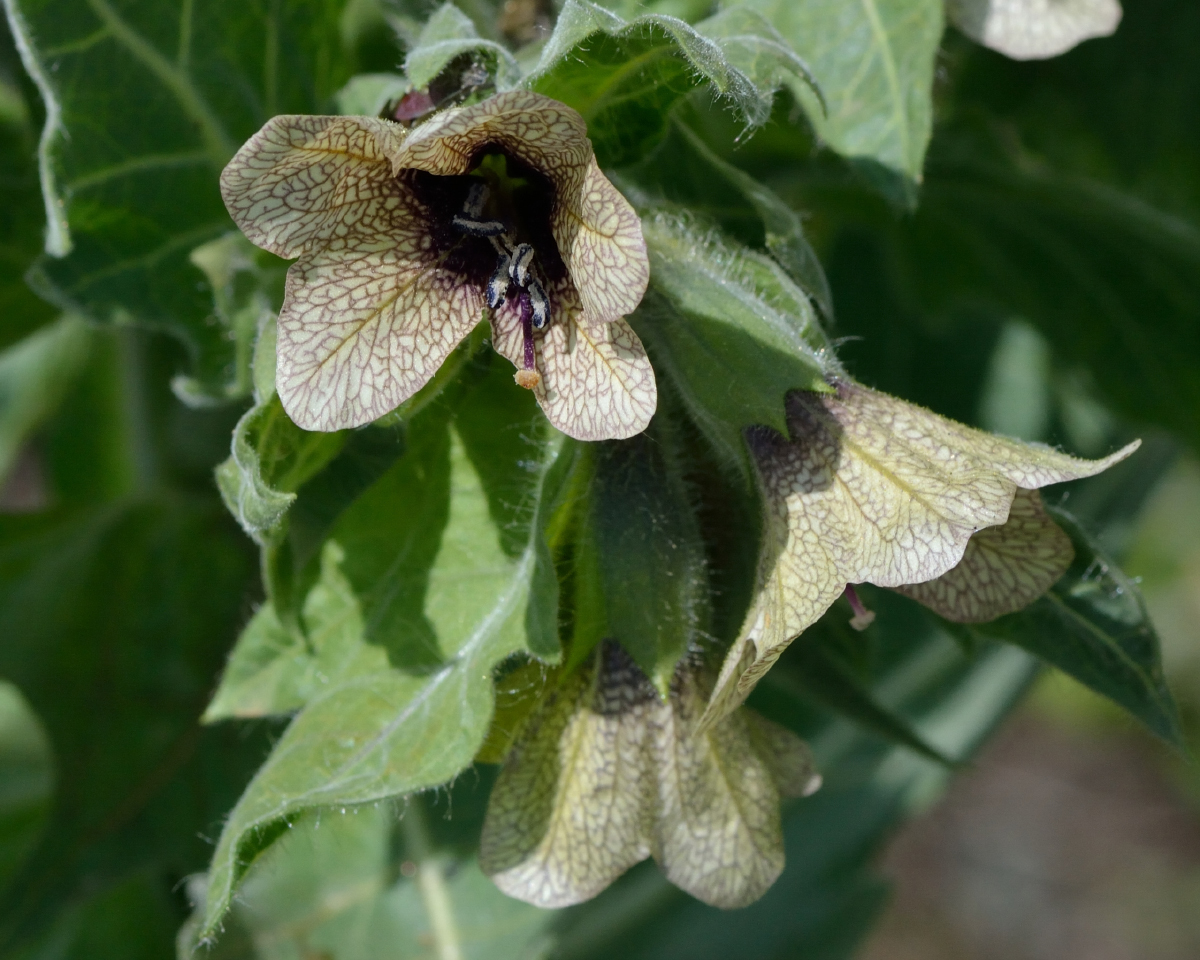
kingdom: Plantae
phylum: Tracheophyta
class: Magnoliopsida
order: Solanales
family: Solanaceae
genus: Hyoscyamus
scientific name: Hyoscyamus niger
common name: Henbane
